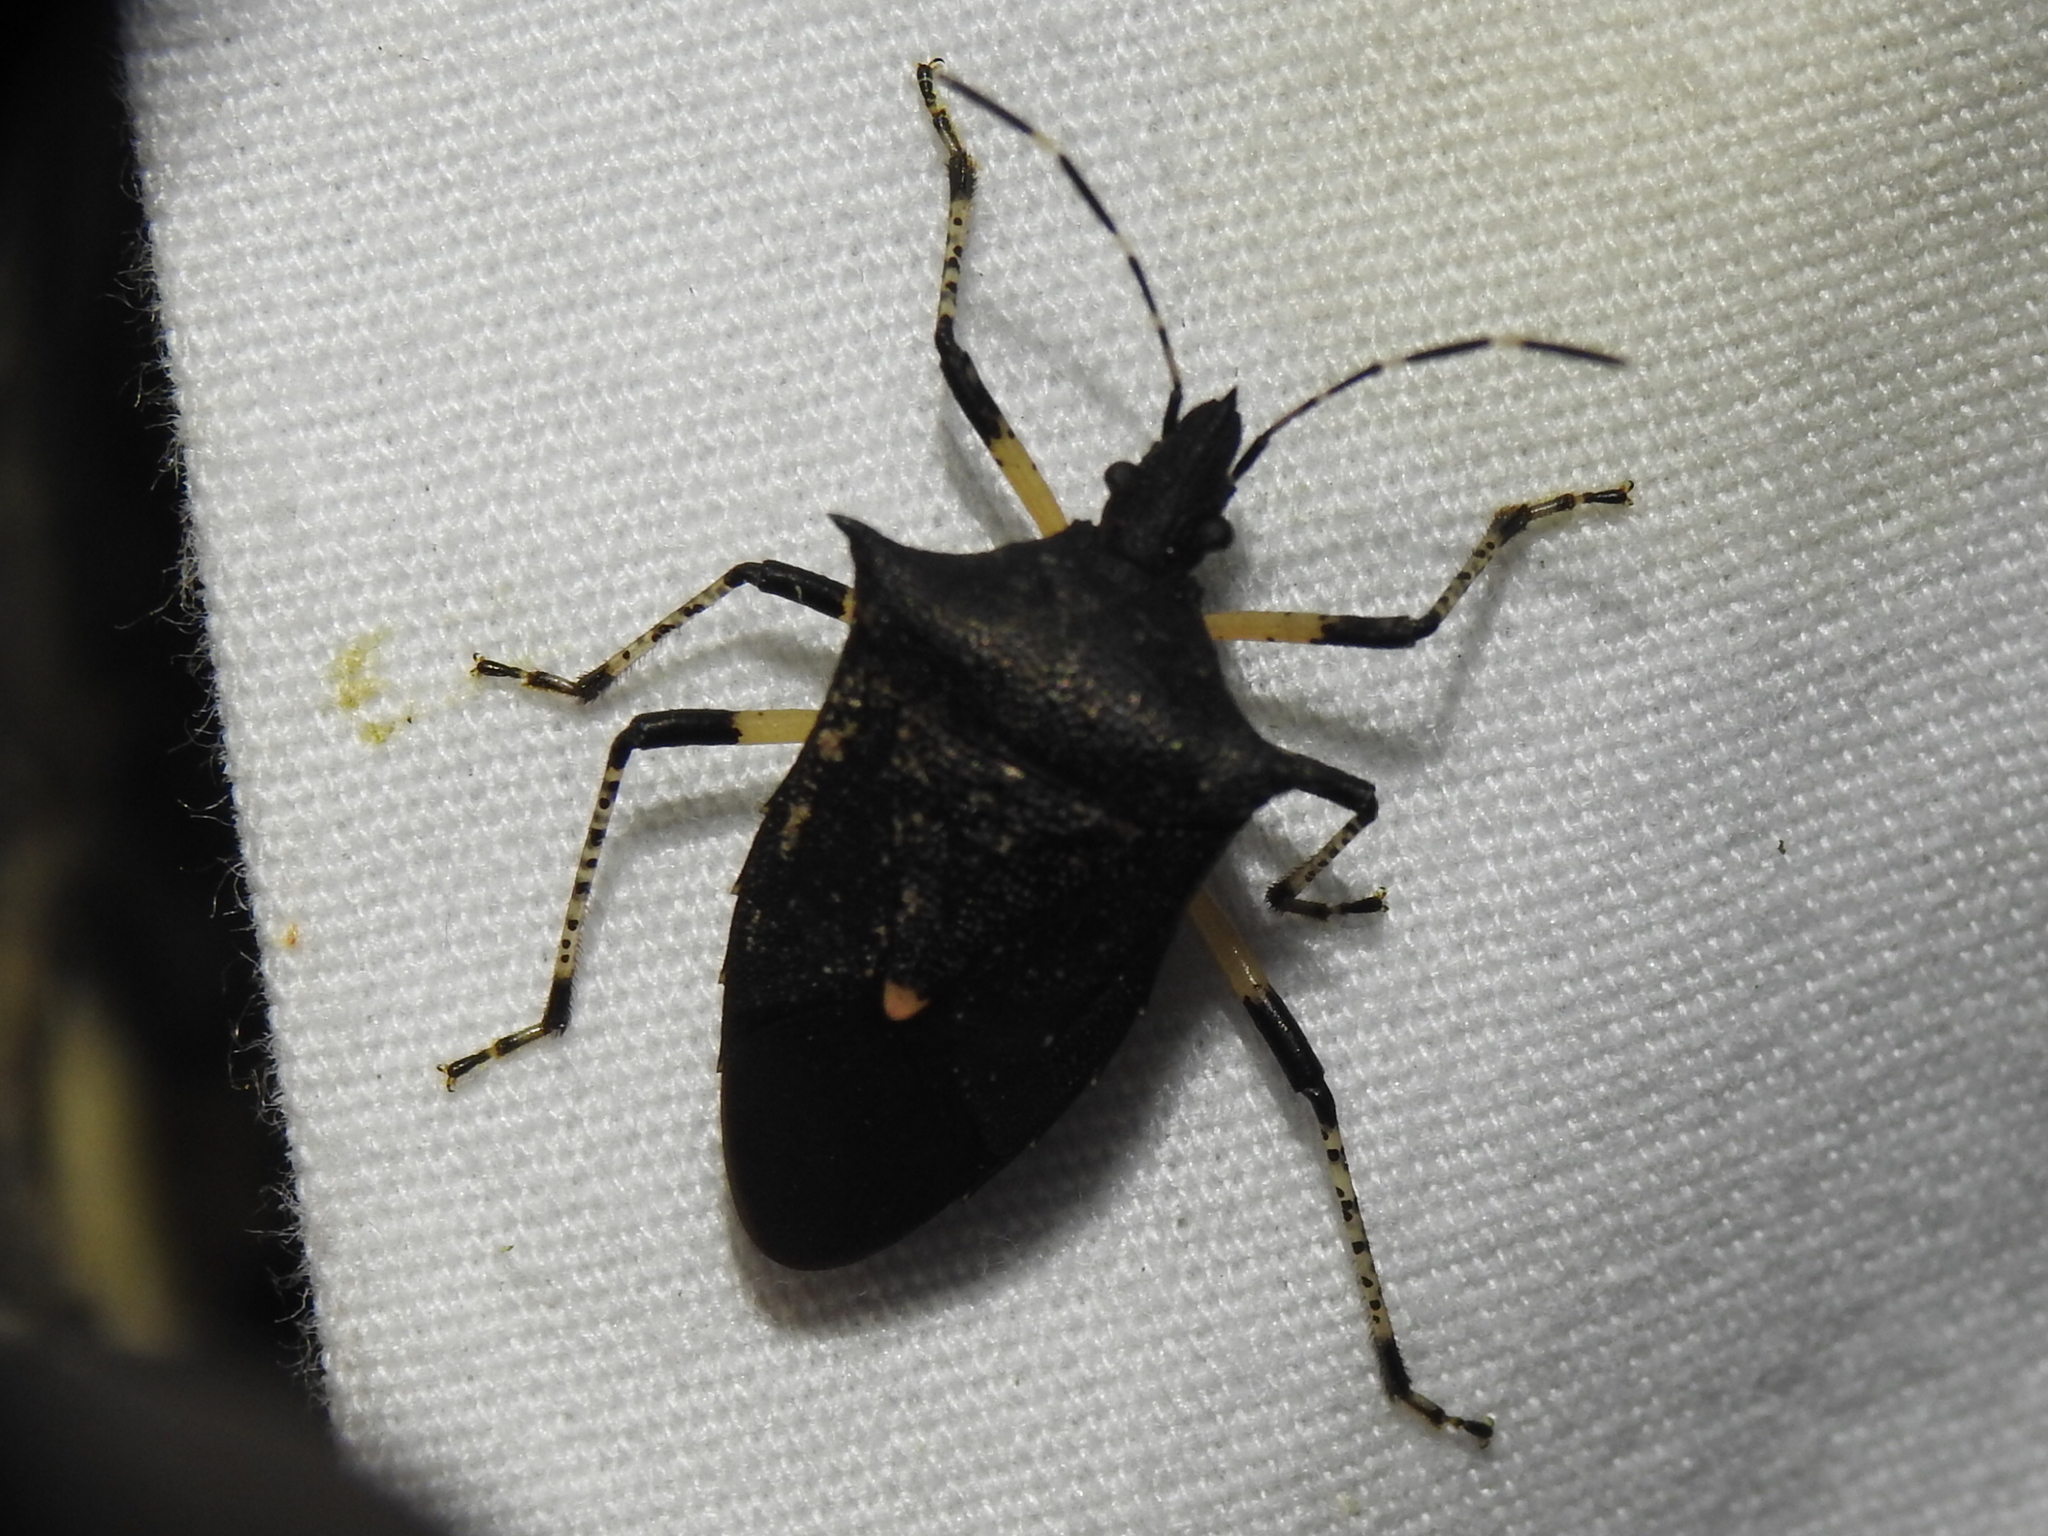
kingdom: Animalia
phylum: Arthropoda
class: Insecta
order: Hemiptera
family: Pentatomidae
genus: Proxys
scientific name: Proxys punctulatus
